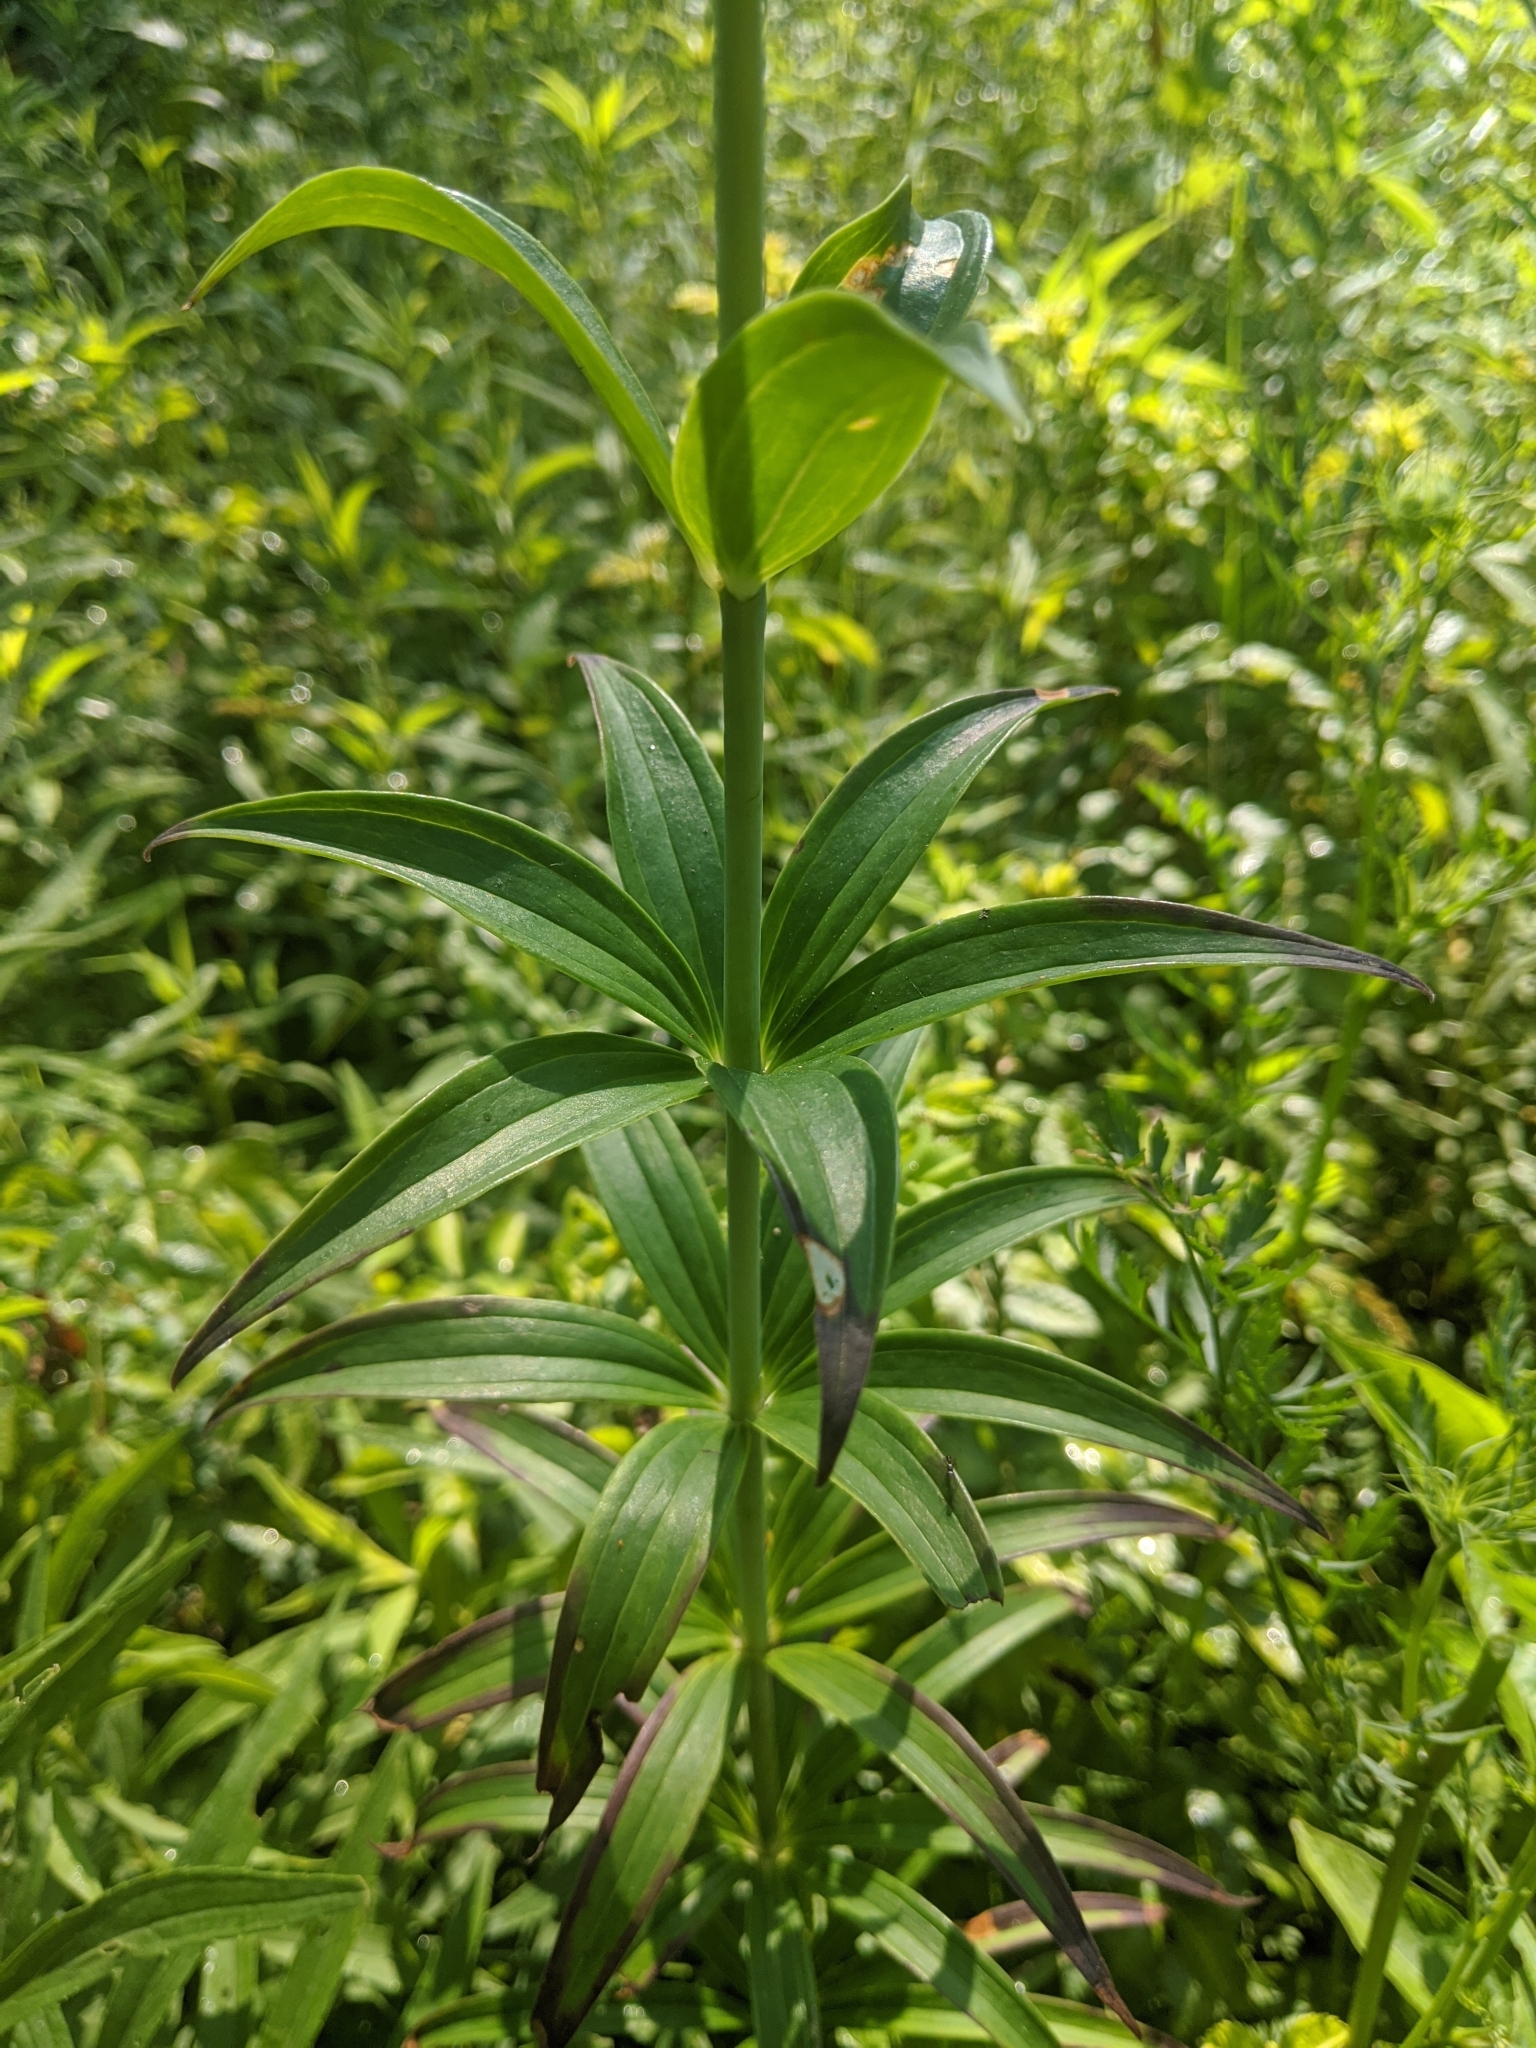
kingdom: Plantae
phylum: Tracheophyta
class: Liliopsida
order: Liliales
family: Liliaceae
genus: Lilium
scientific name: Lilium michiganense
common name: Michigan lily
